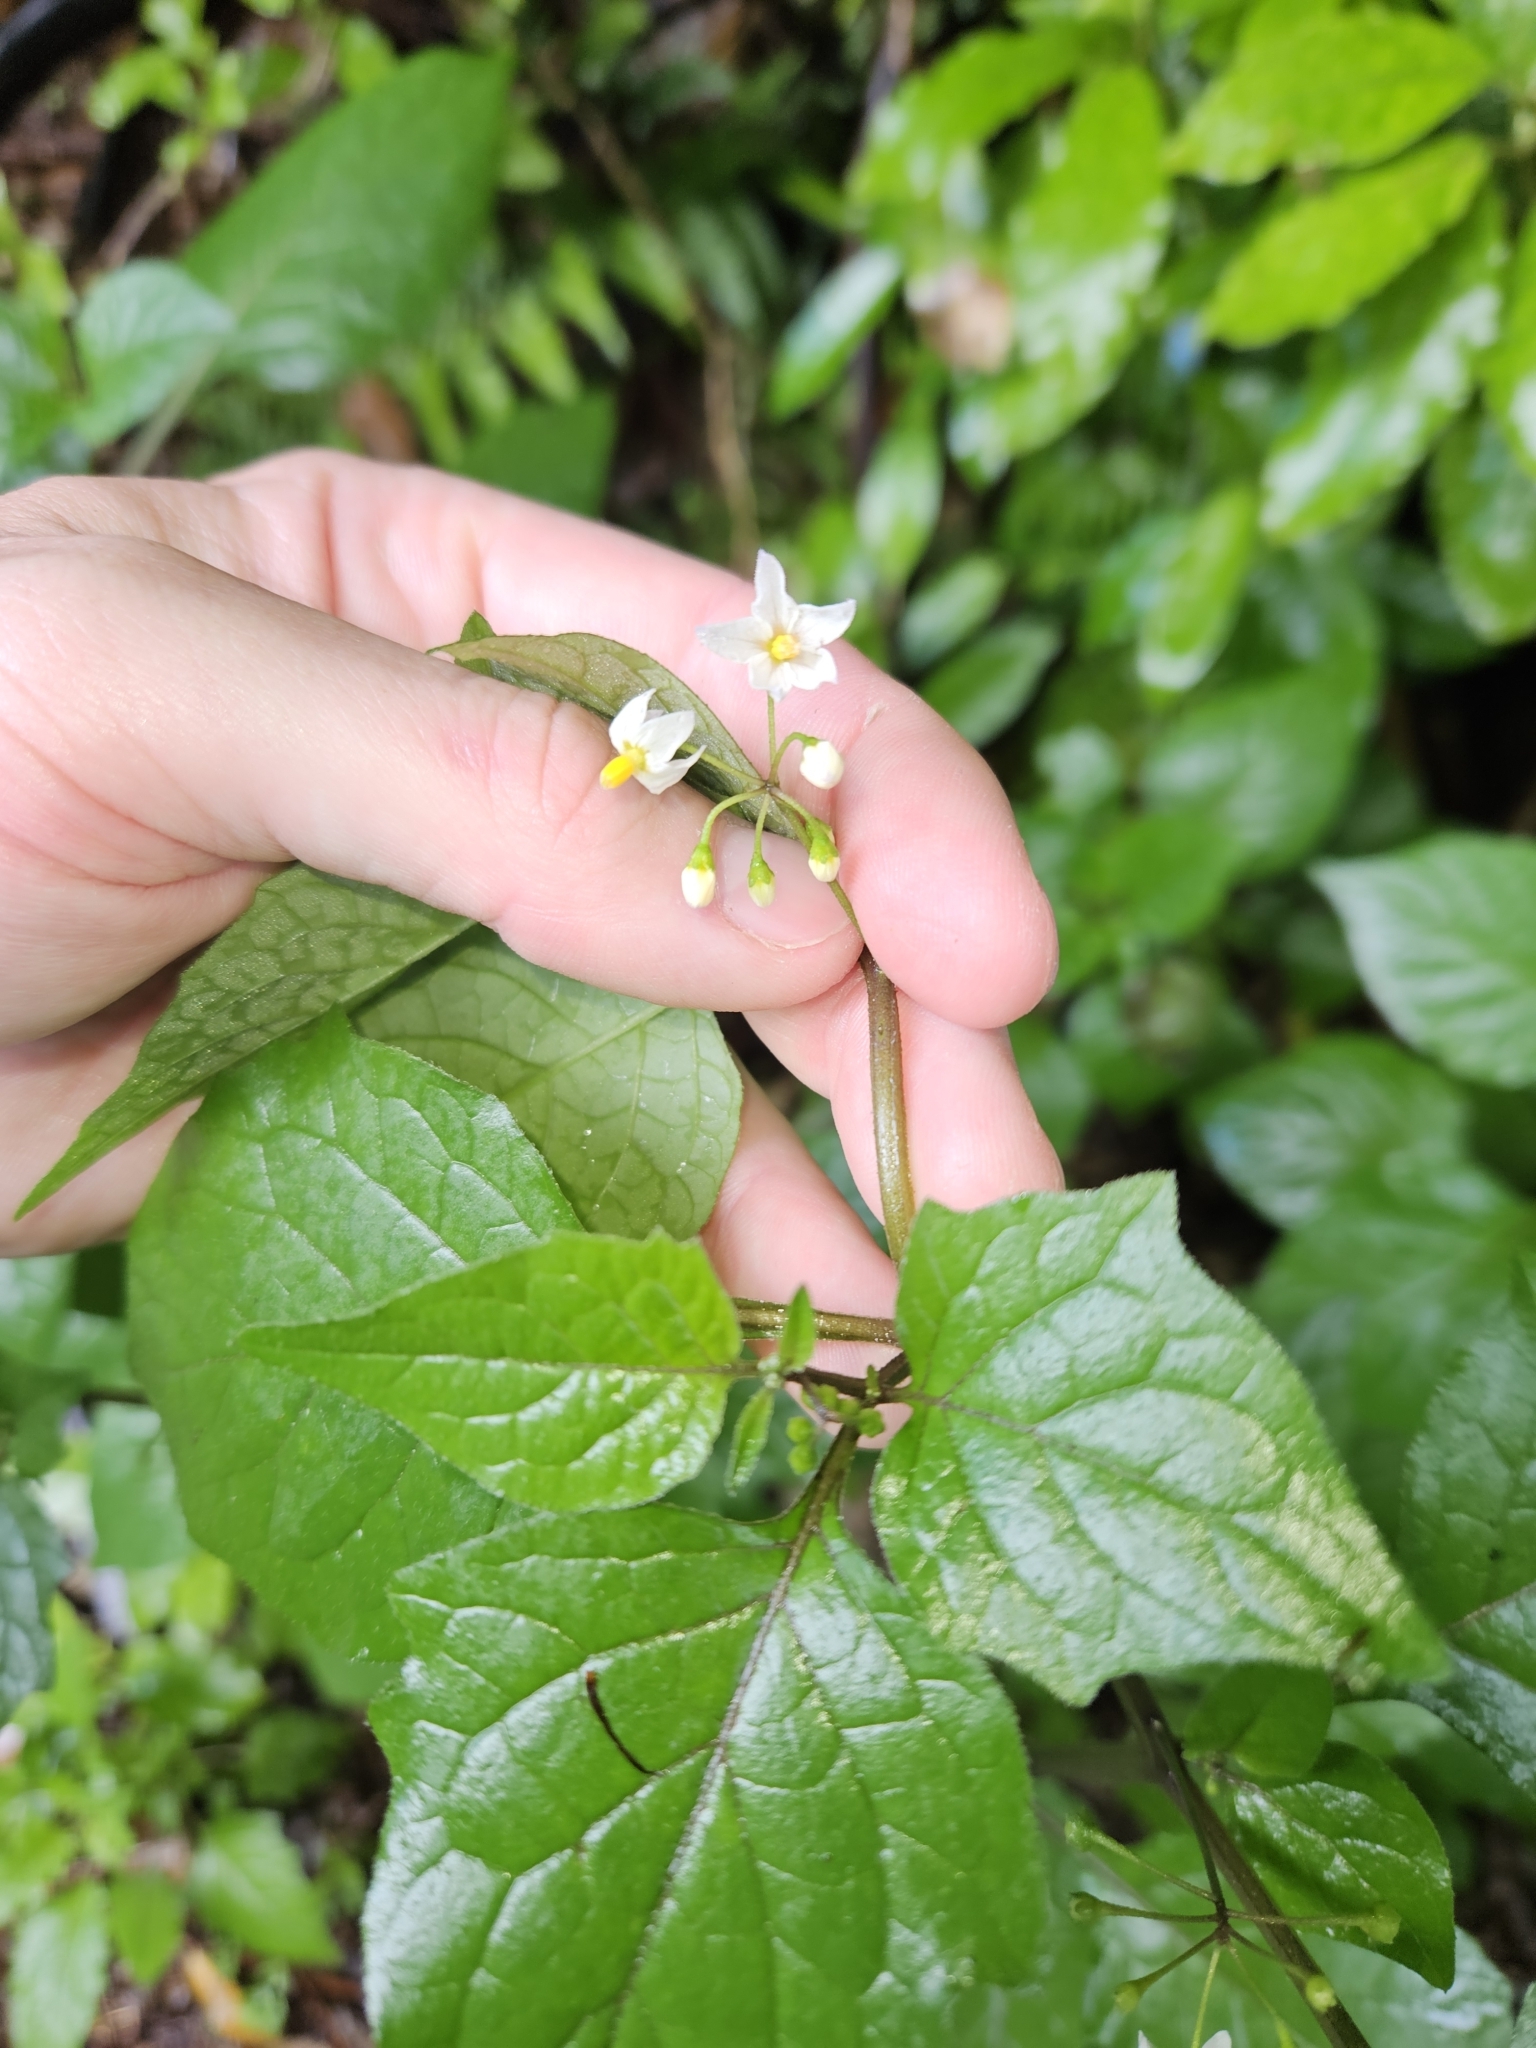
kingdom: Plantae
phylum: Tracheophyta
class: Magnoliopsida
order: Solanales
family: Solanaceae
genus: Solanum
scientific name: Solanum nigrum
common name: Black nightshade
